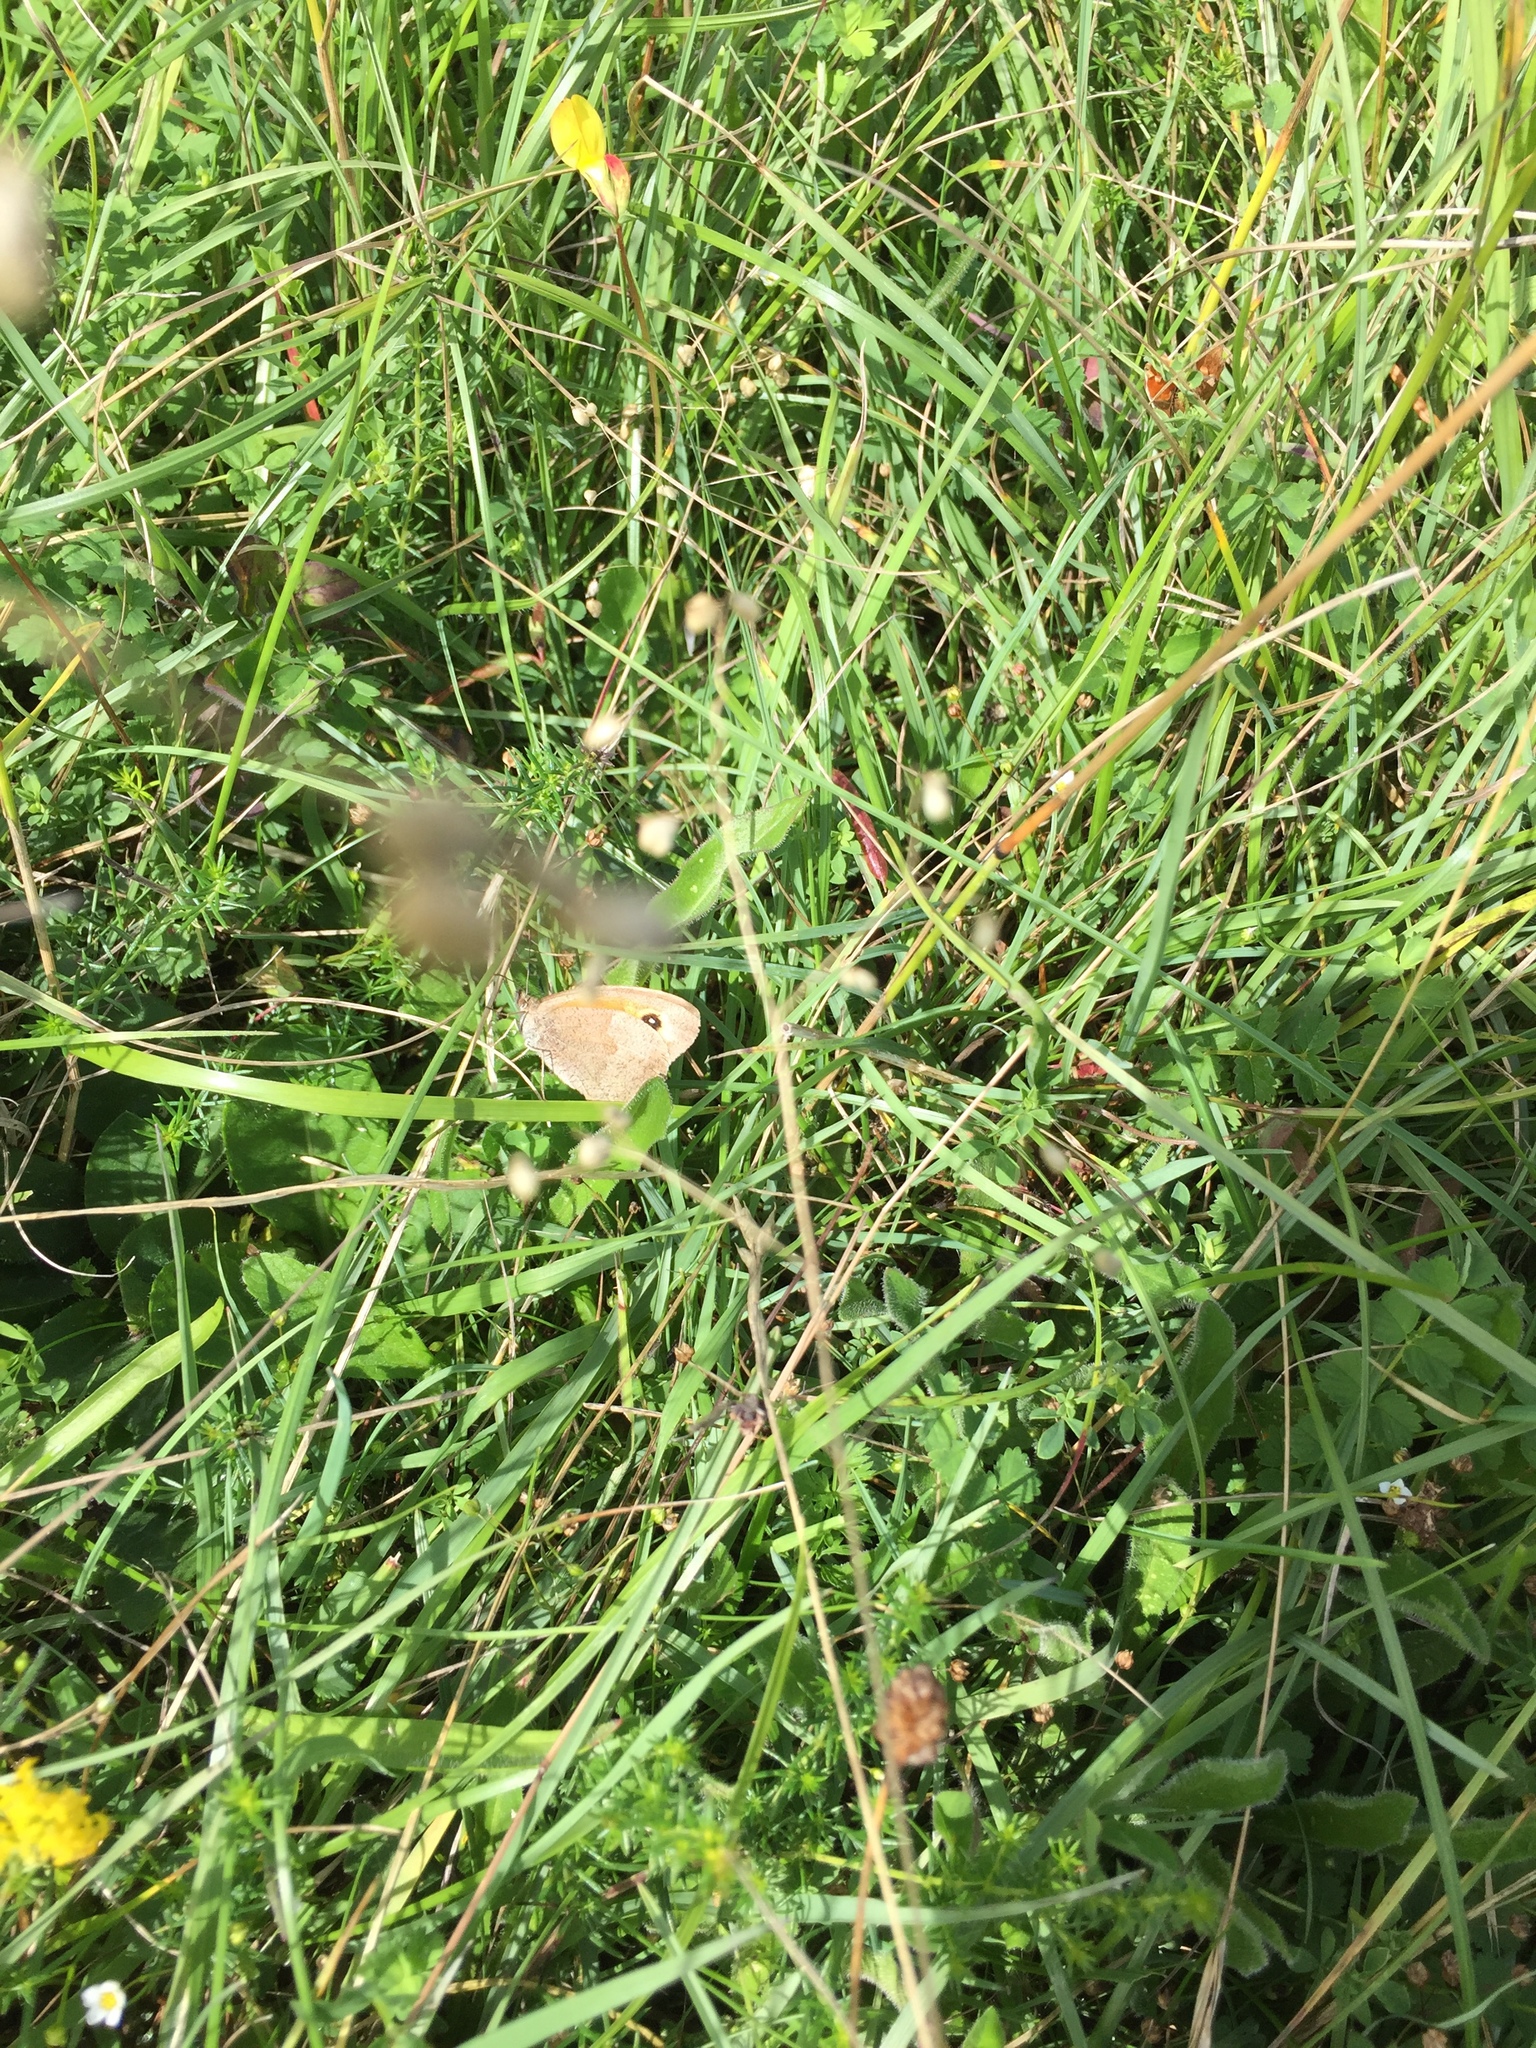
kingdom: Animalia
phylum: Arthropoda
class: Insecta
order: Lepidoptera
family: Nymphalidae
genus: Maniola
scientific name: Maniola jurtina
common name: Meadow brown
